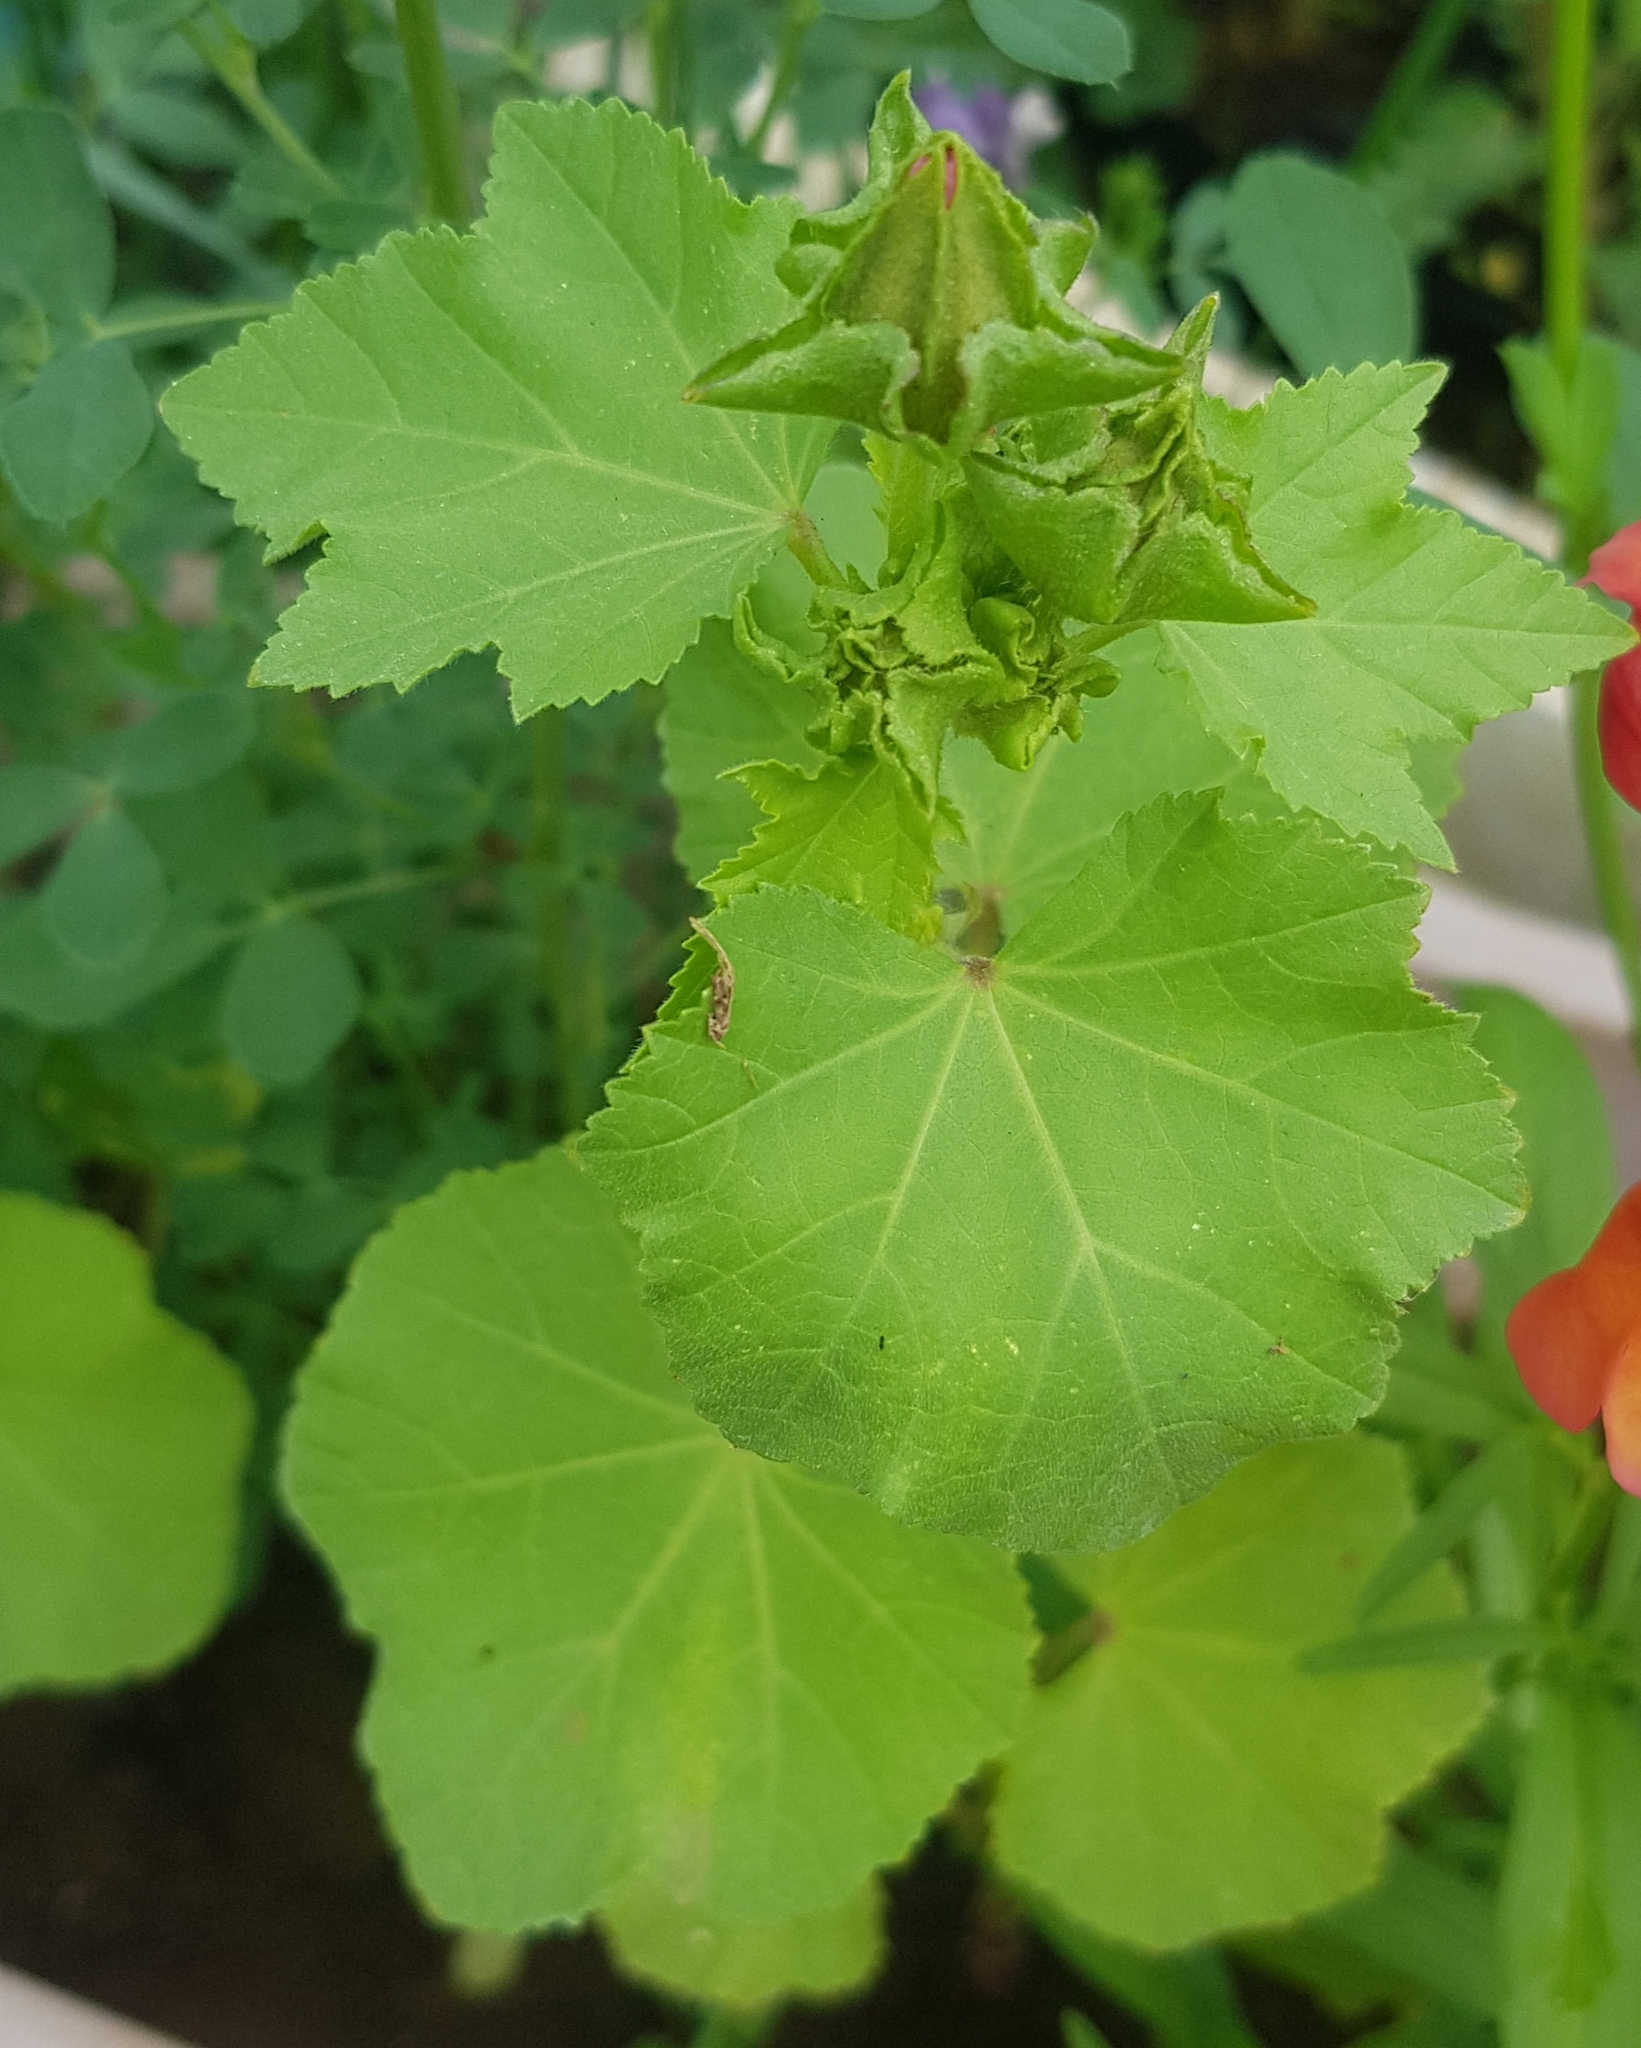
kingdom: Plantae
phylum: Tracheophyta
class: Magnoliopsida
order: Malvales
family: Malvaceae
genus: Malva
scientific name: Malva verticillata
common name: Chinese mallow
